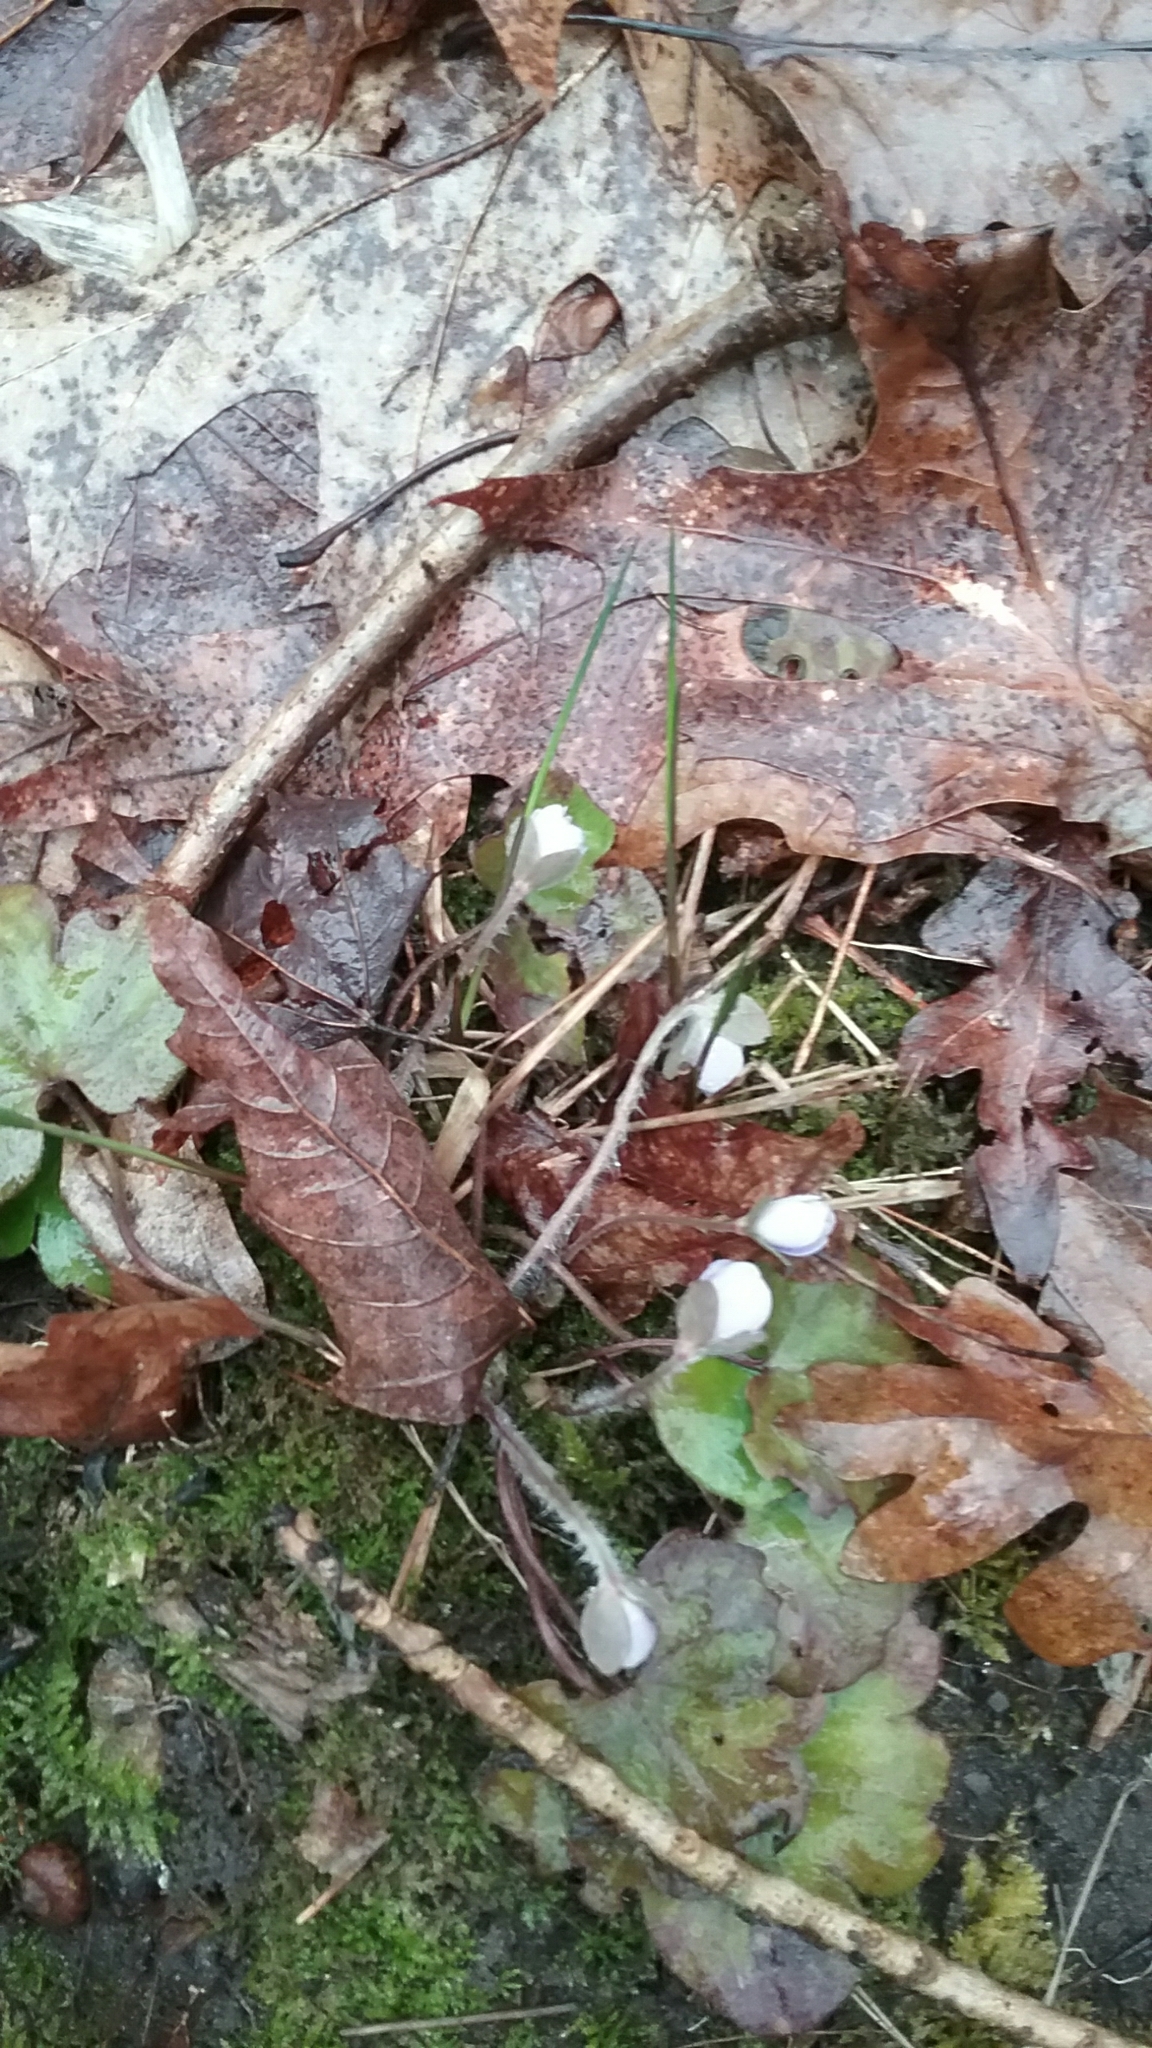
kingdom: Plantae
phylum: Tracheophyta
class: Magnoliopsida
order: Ranunculales
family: Ranunculaceae
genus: Hepatica
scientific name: Hepatica americana
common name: American hepatica
